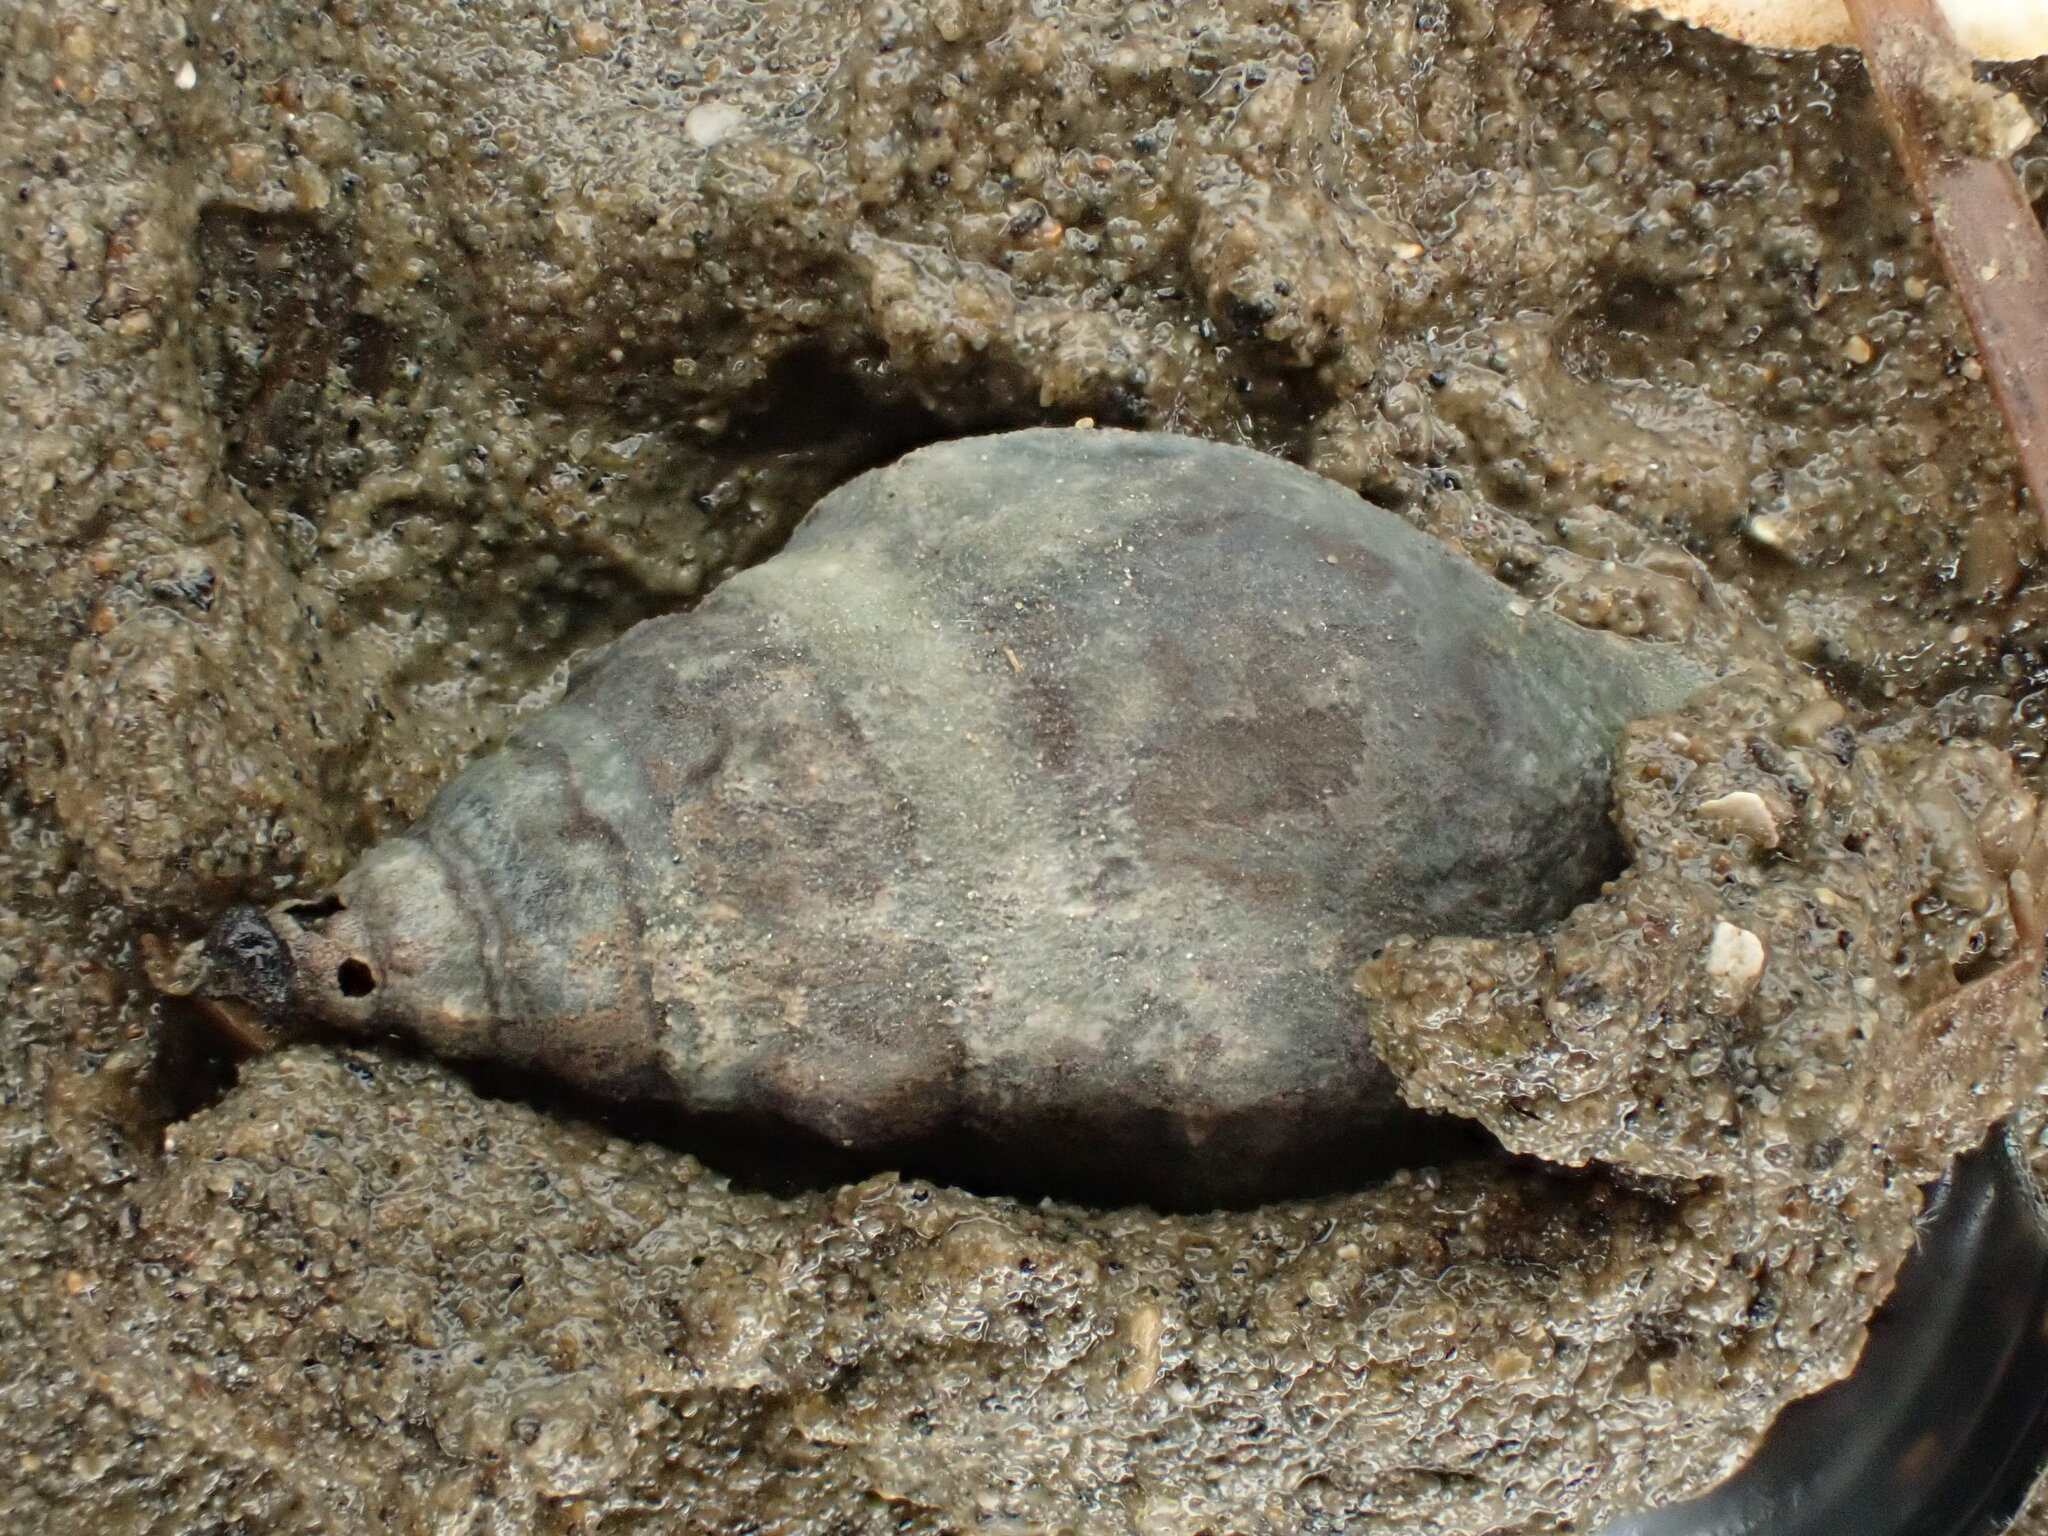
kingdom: Animalia
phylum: Mollusca
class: Gastropoda
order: Neogastropoda
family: Cominellidae
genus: Cominella
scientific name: Cominella glandiformis
